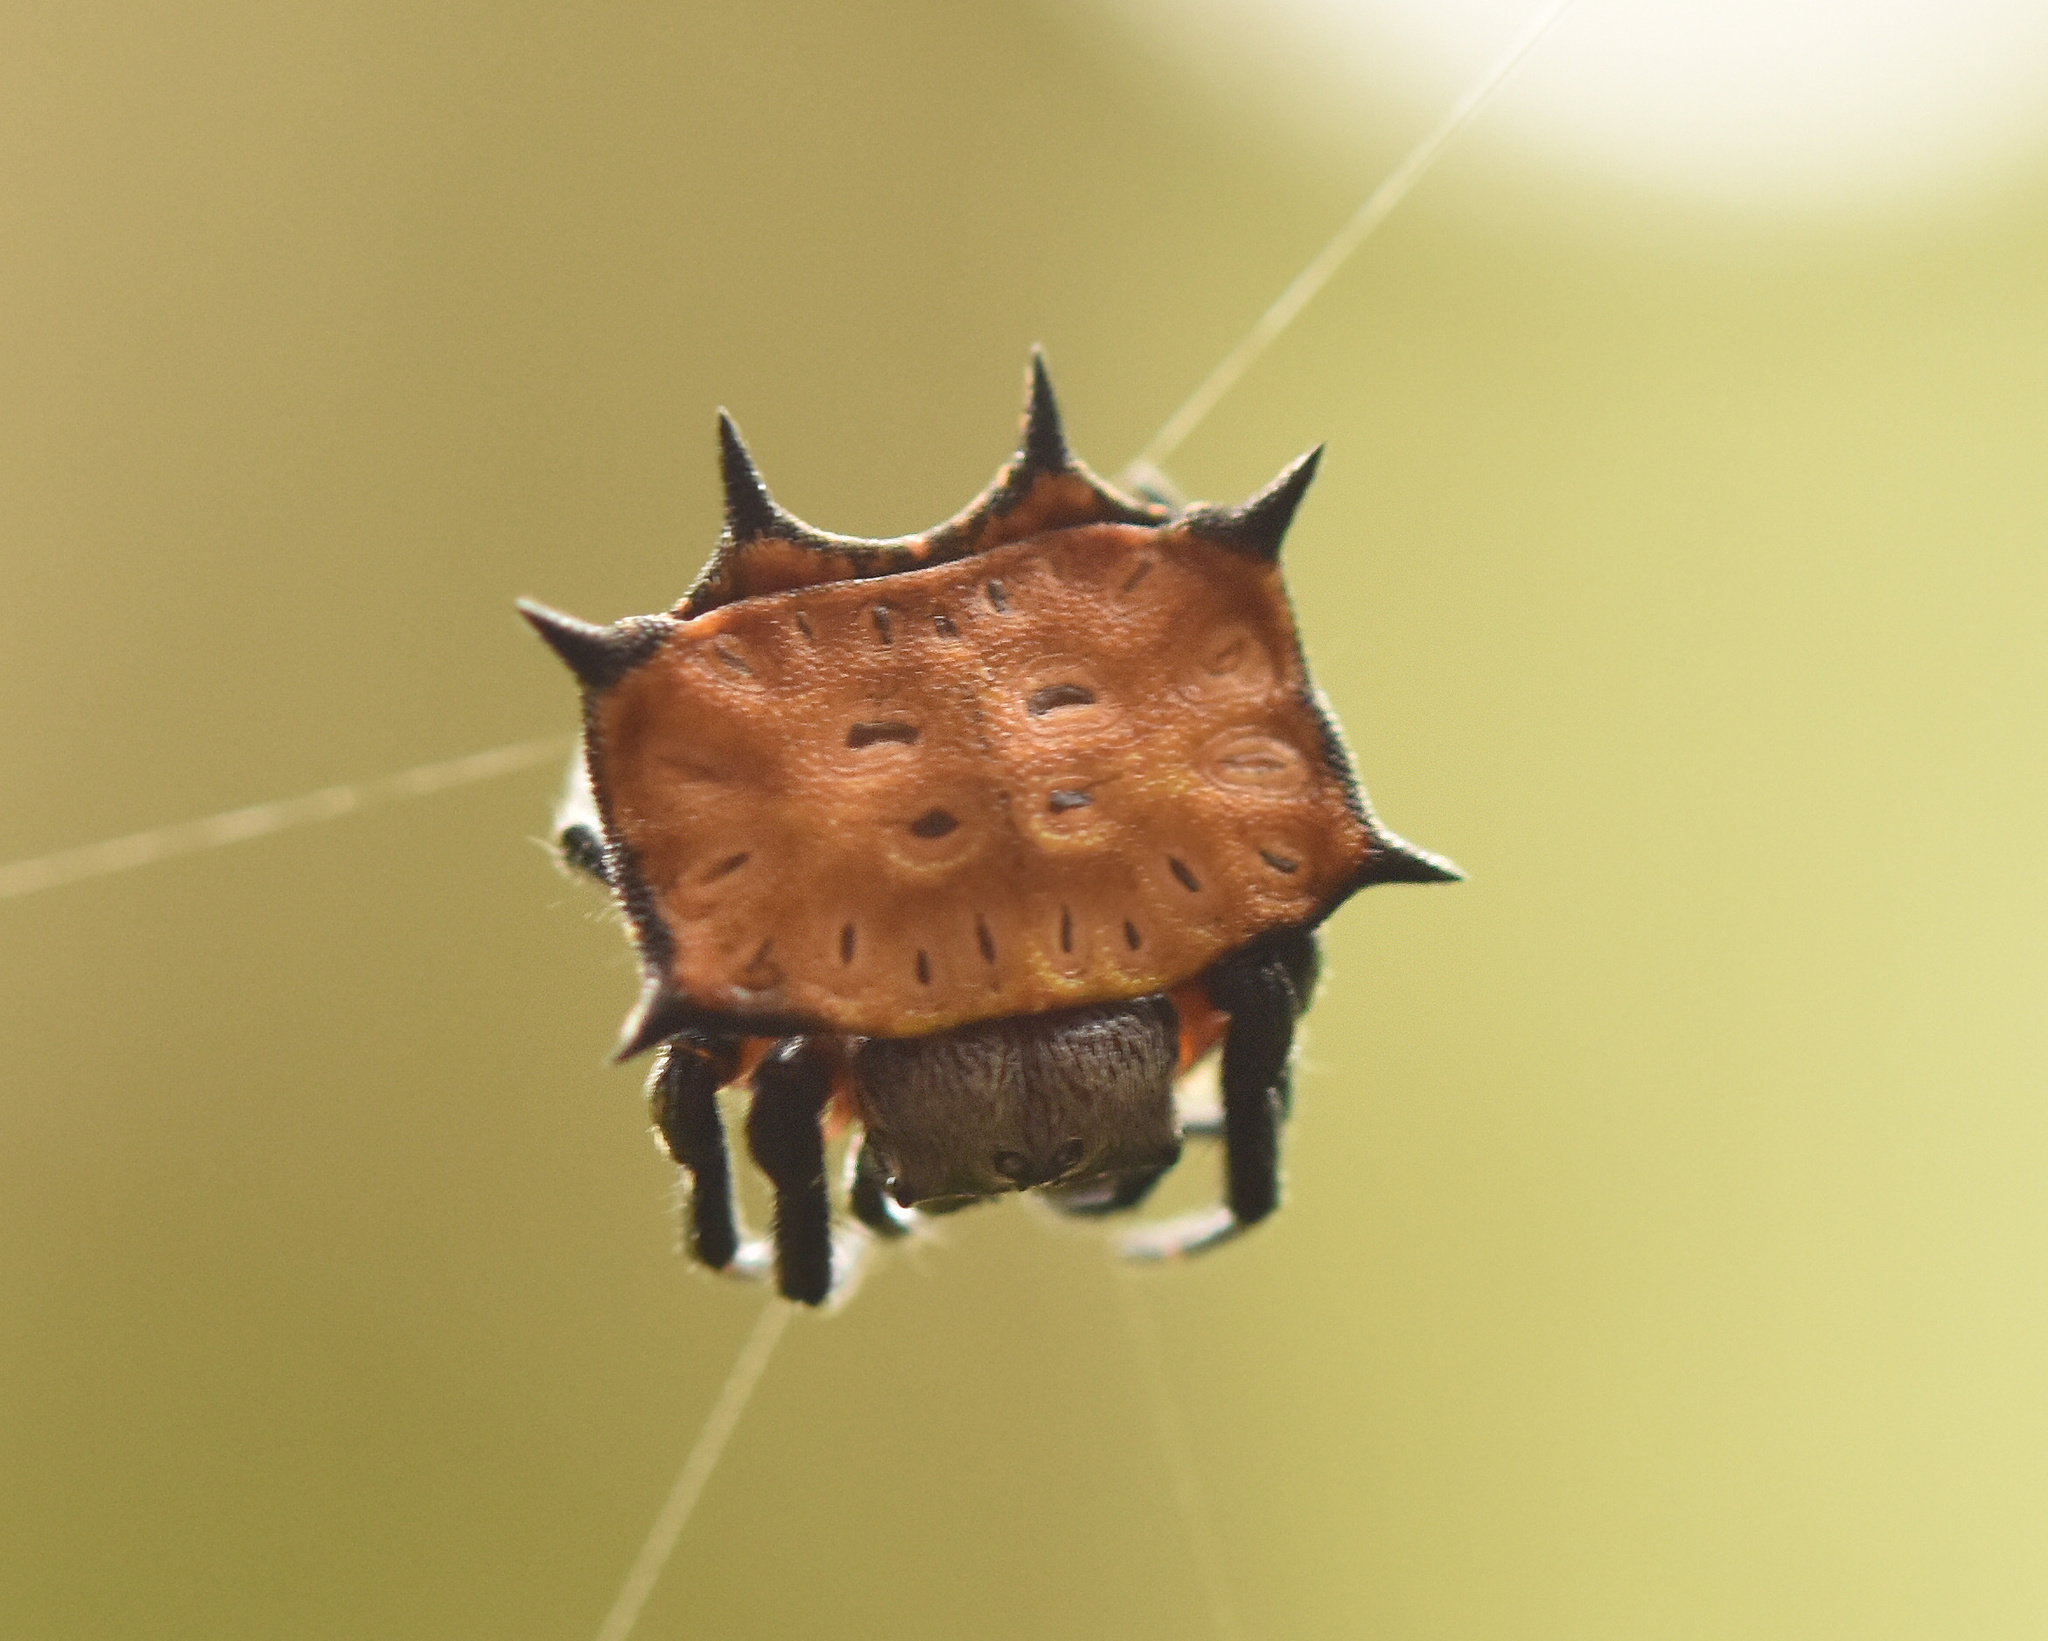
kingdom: Animalia
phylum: Arthropoda
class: Arachnida
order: Araneae
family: Araneidae
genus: Isoxya
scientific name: Isoxya tabulata
